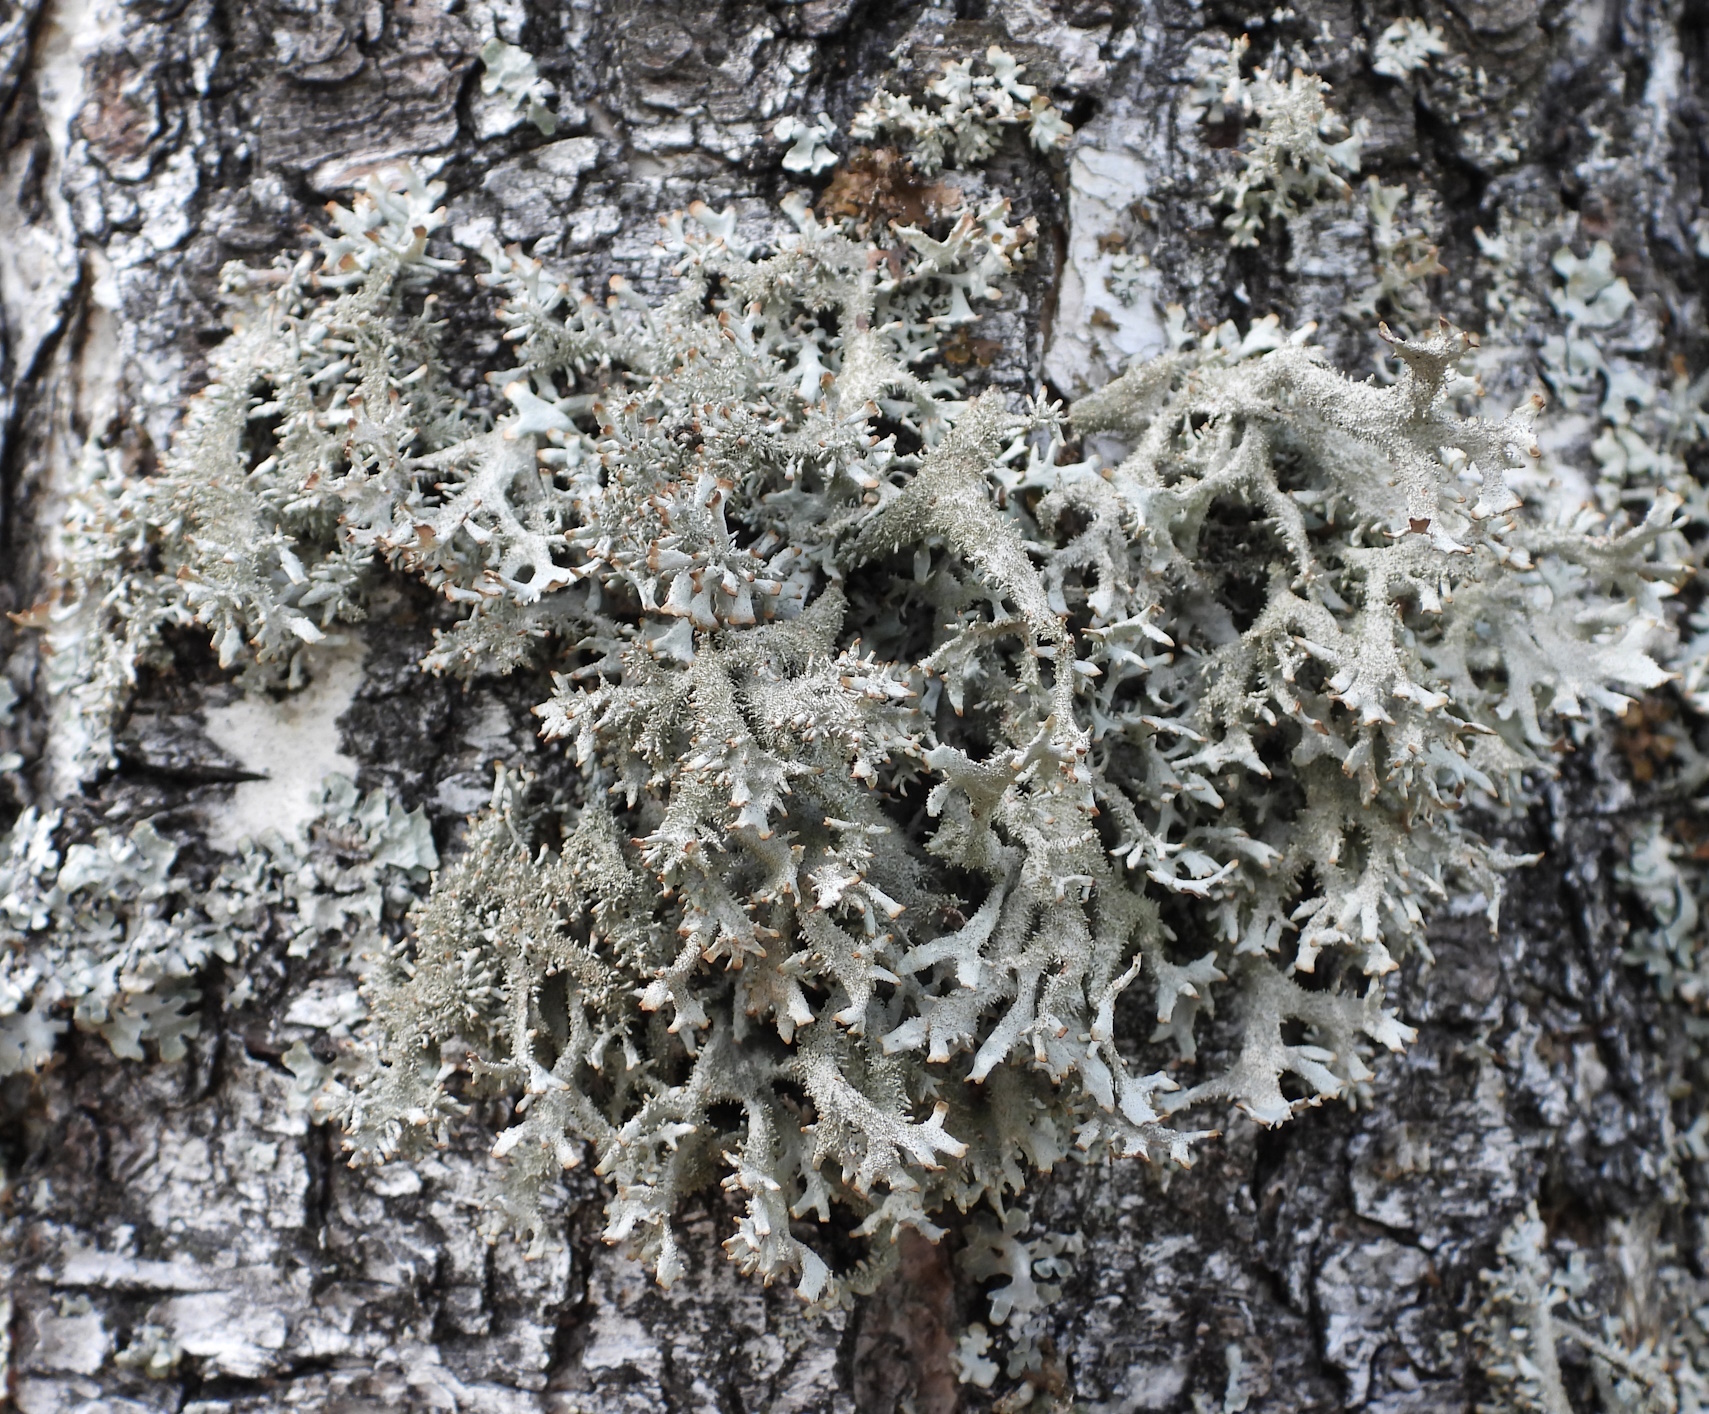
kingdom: Fungi
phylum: Ascomycota
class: Lecanoromycetes
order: Lecanorales
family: Parmeliaceae
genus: Pseudevernia
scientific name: Pseudevernia furfuracea
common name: Tree moss
